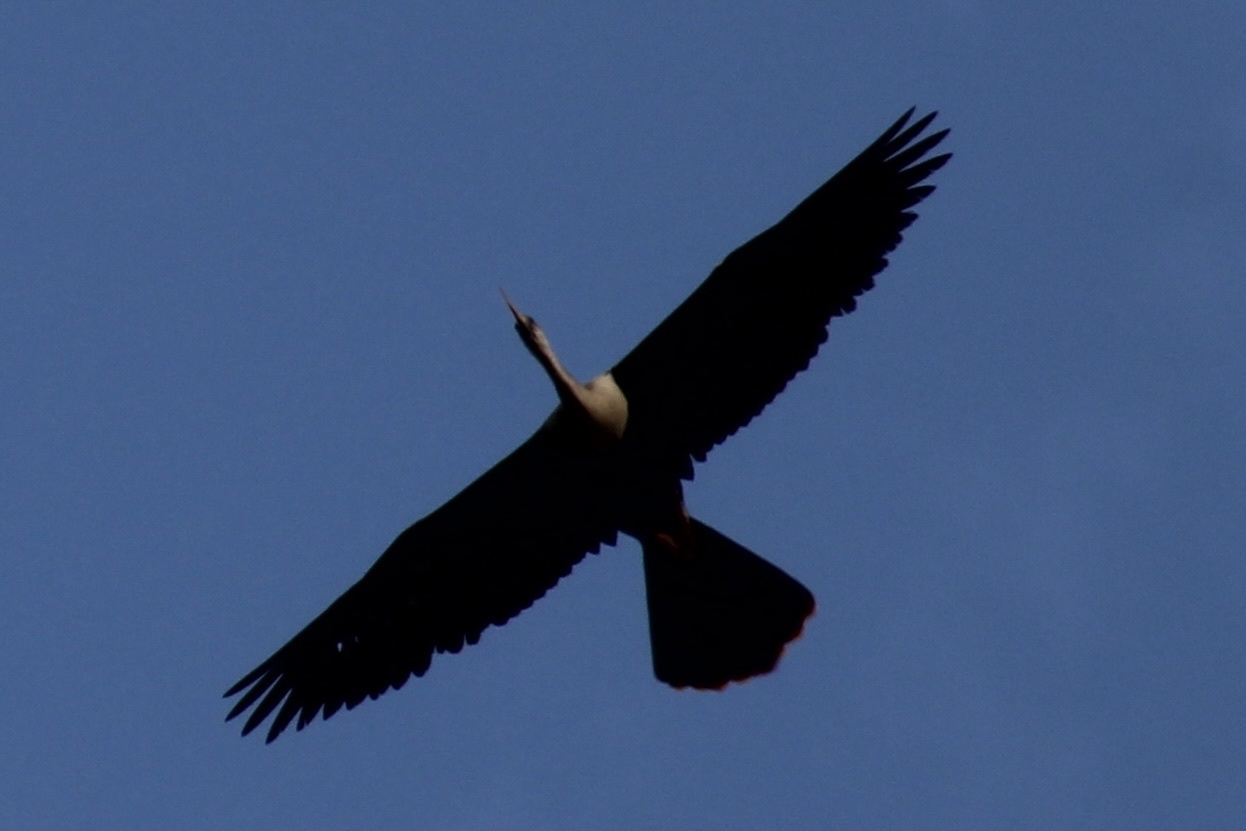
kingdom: Animalia
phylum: Chordata
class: Aves
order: Suliformes
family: Anhingidae
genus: Anhinga
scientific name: Anhinga anhinga
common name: Anhinga
